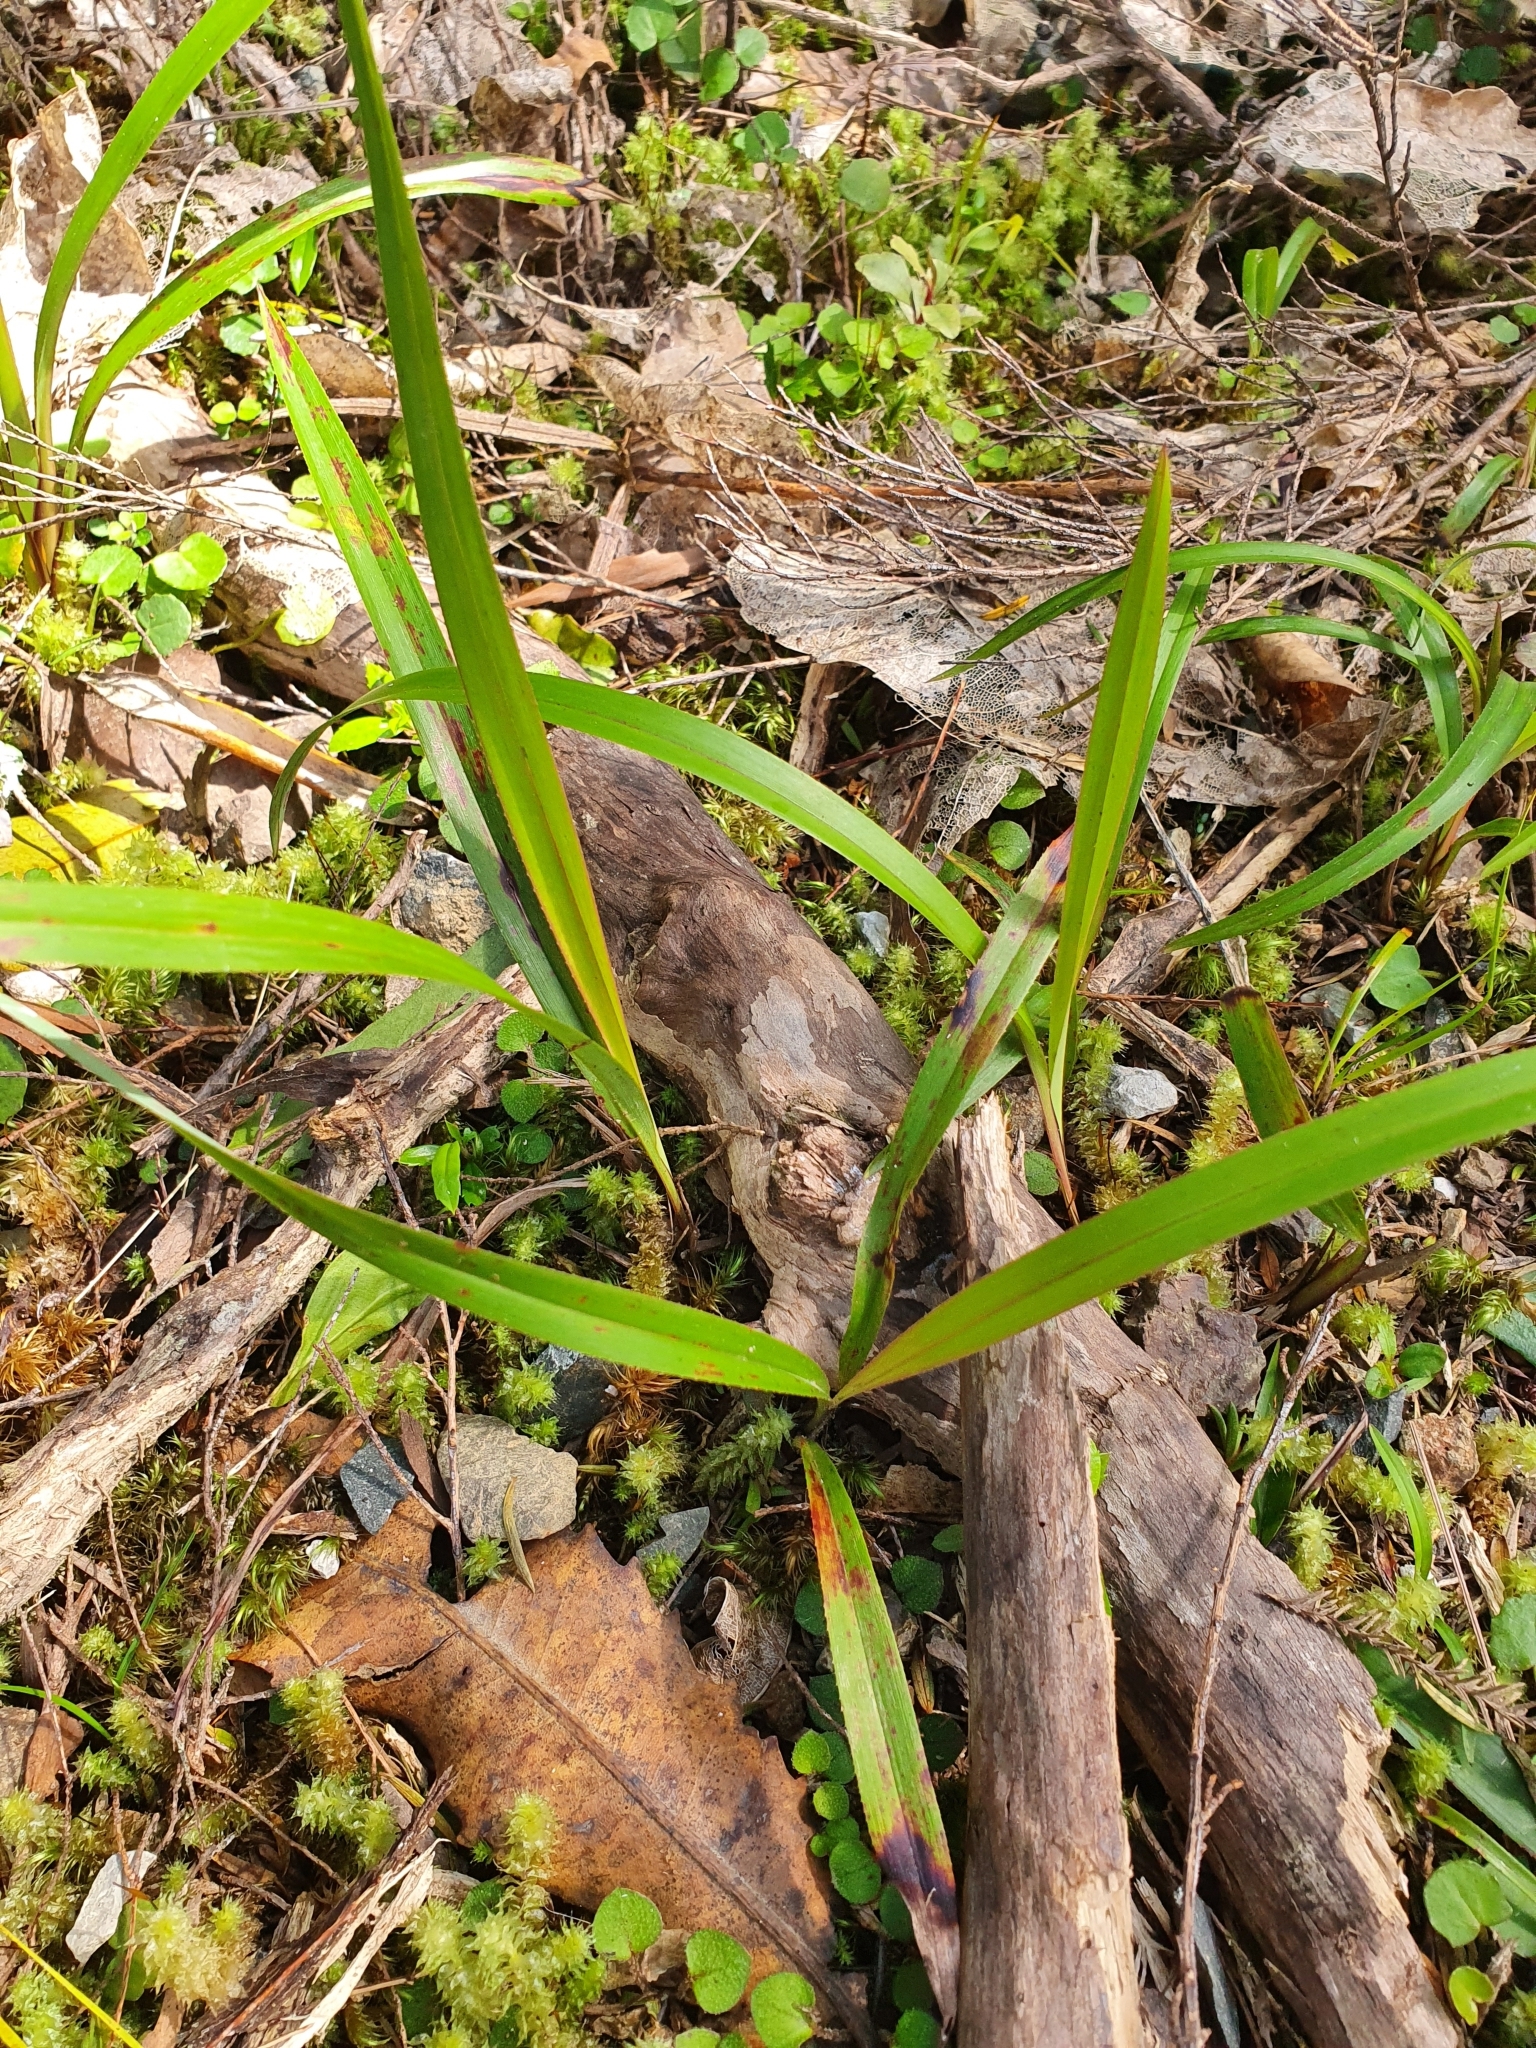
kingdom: Plantae
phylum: Tracheophyta
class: Liliopsida
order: Asparagales
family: Asphodelaceae
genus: Dianella
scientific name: Dianella nigra
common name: New zealand-blueberry
